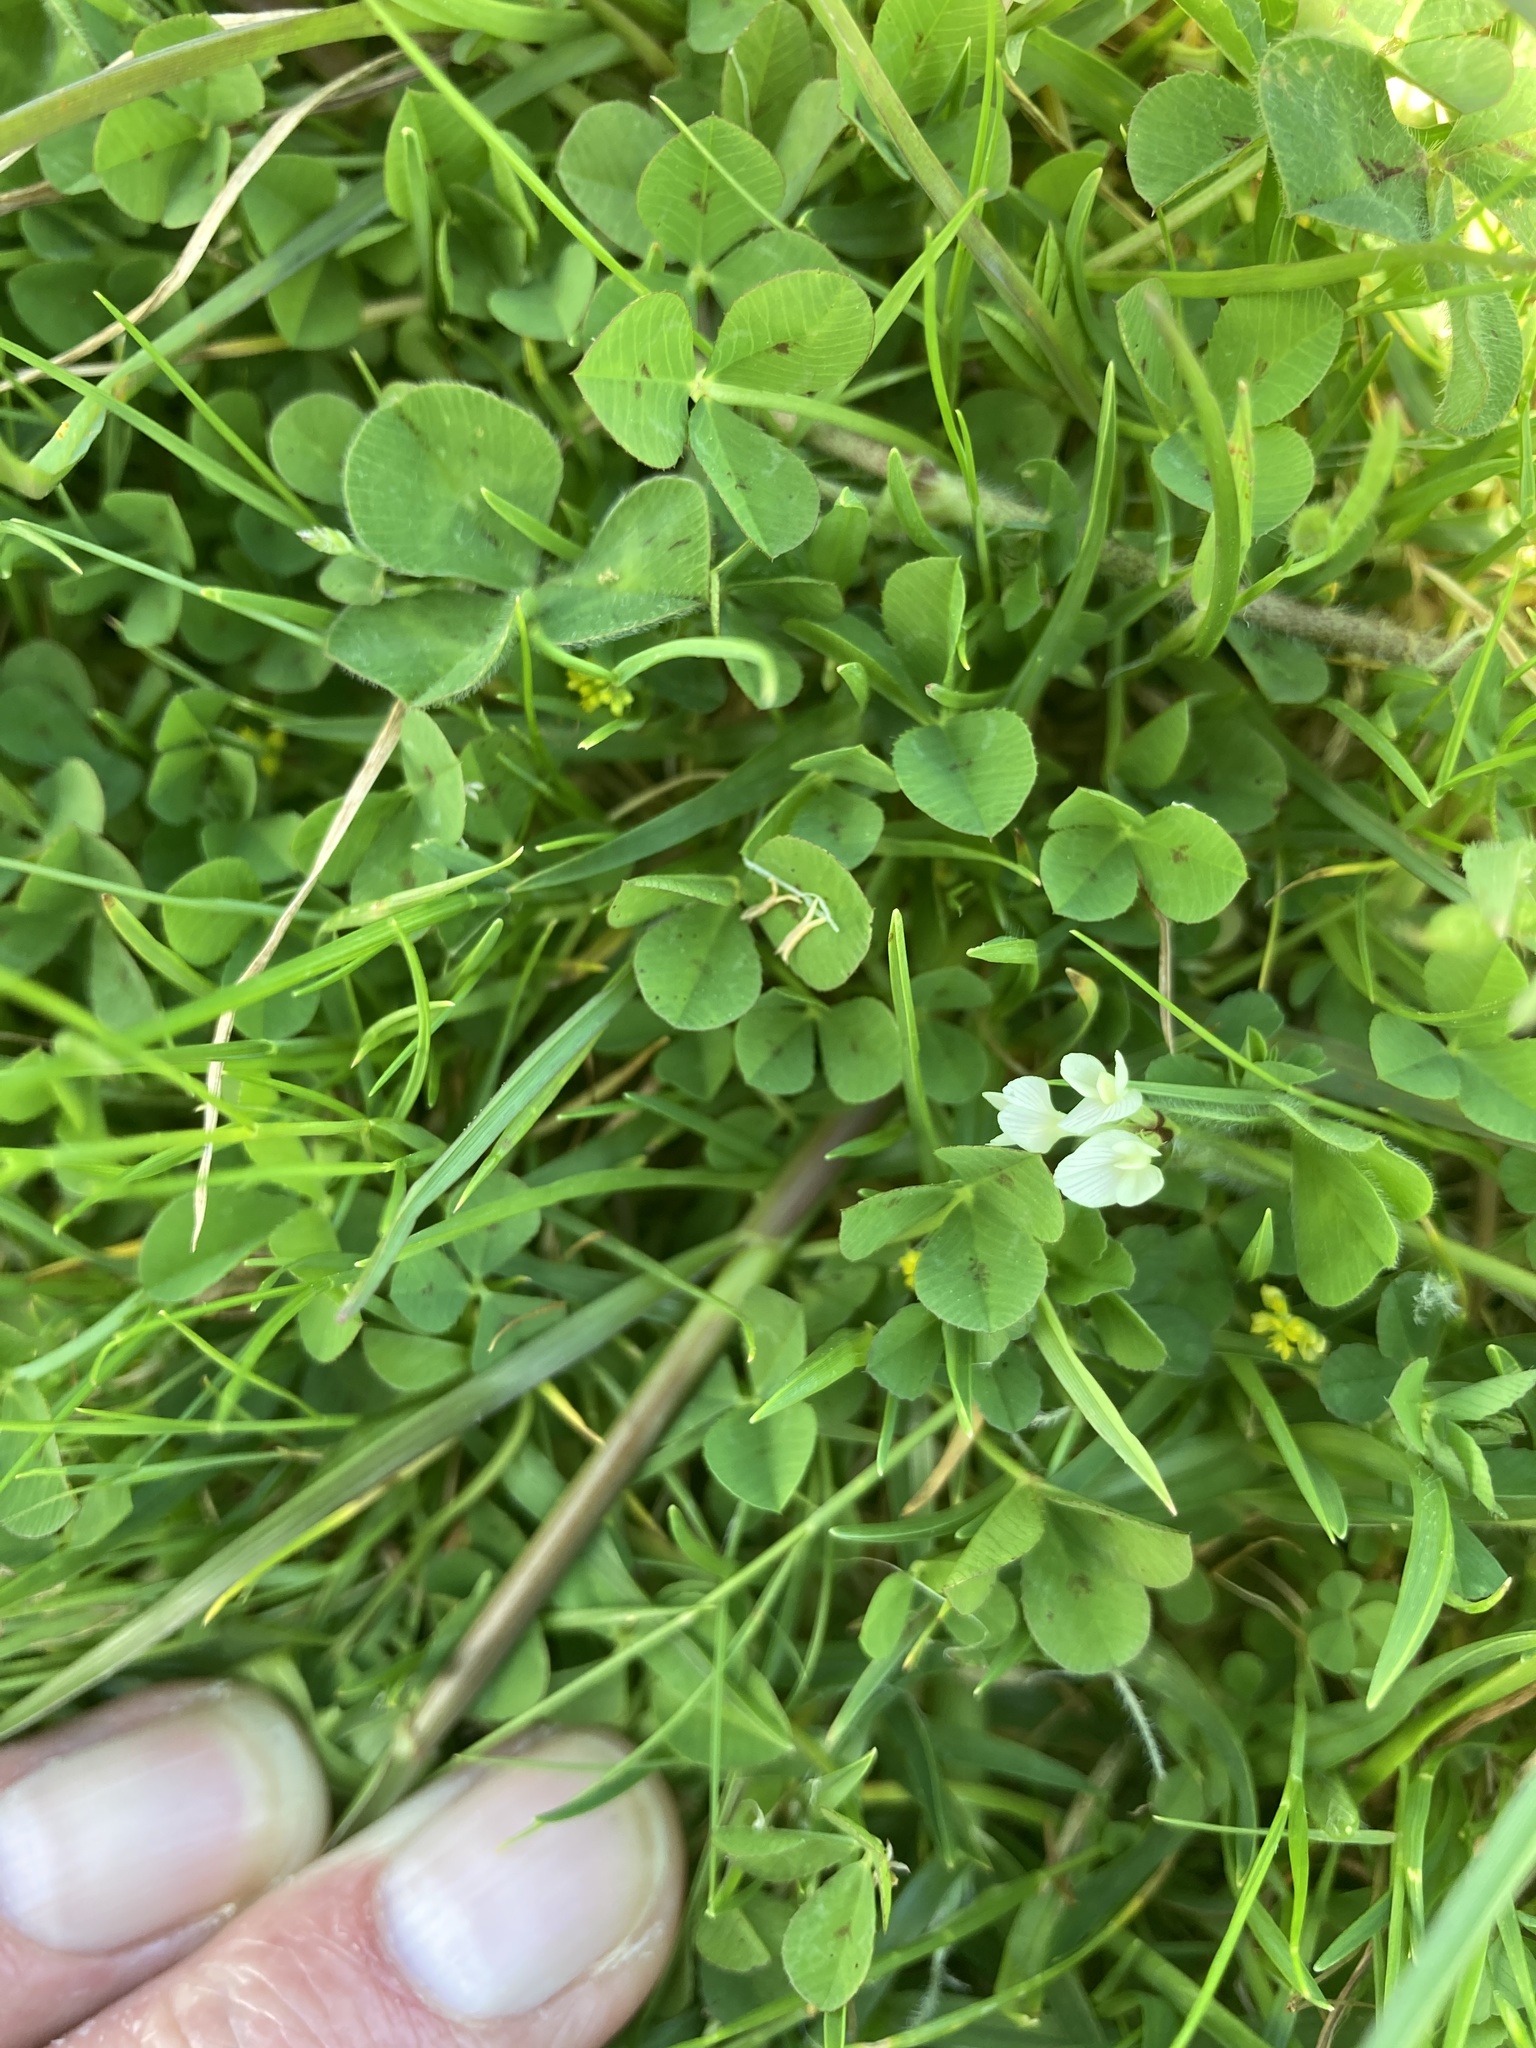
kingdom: Plantae
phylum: Tracheophyta
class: Magnoliopsida
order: Fabales
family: Fabaceae
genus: Trifolium
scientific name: Trifolium subterraneum
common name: Subterranean clover
